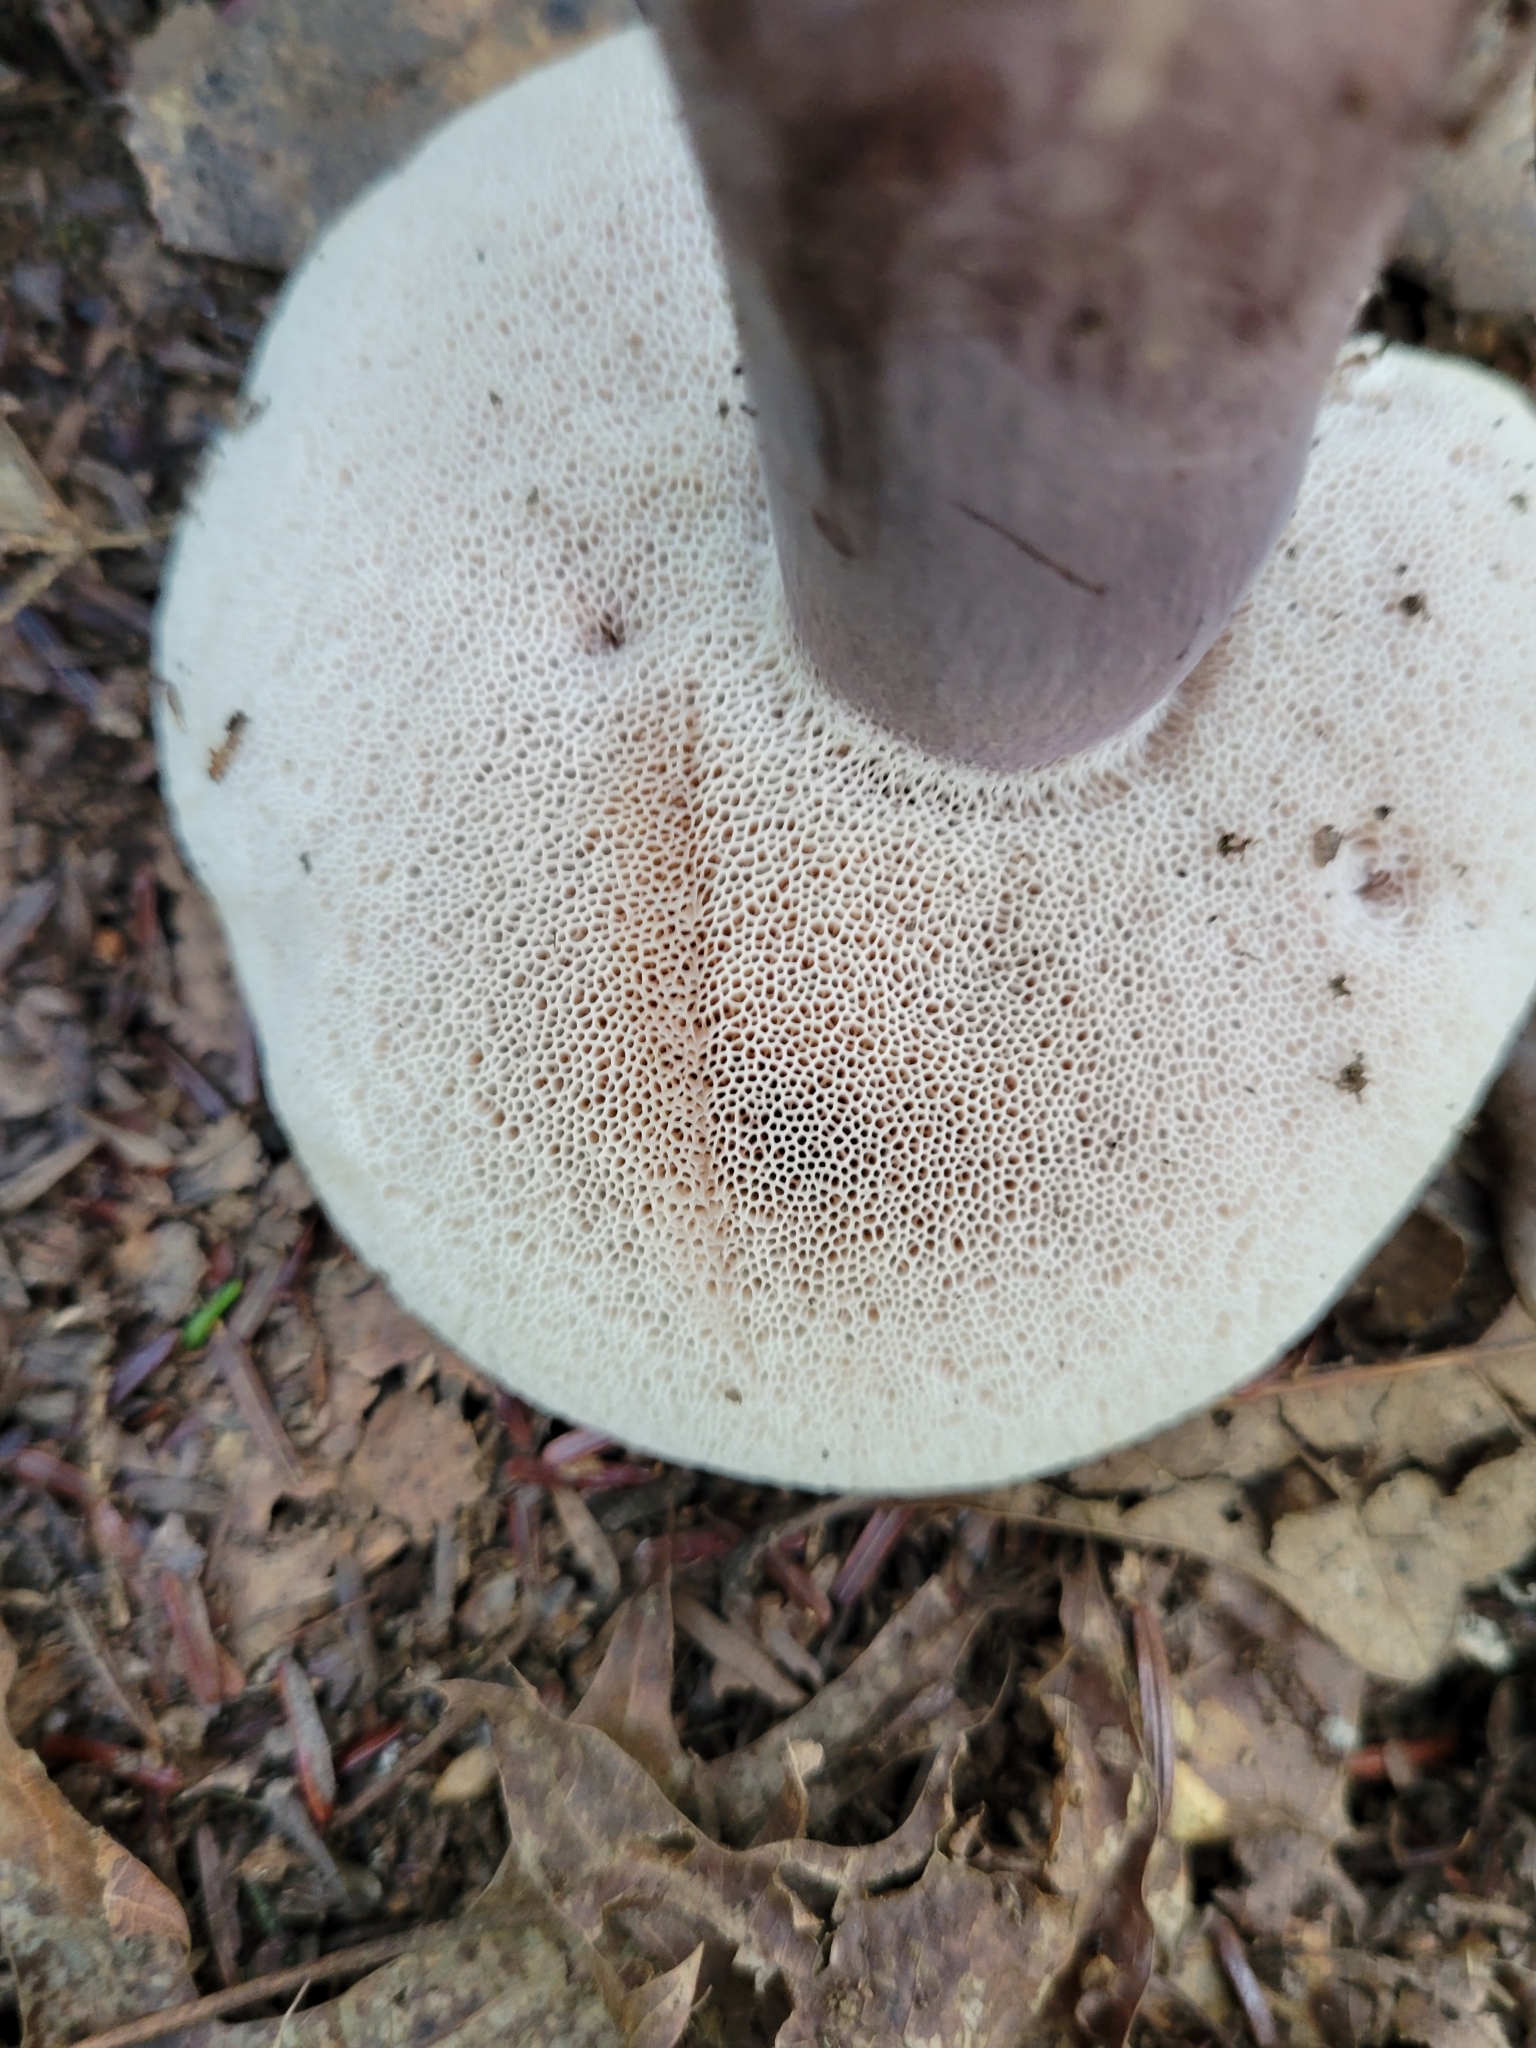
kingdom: Fungi
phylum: Basidiomycota
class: Agaricomycetes
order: Boletales
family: Boletaceae
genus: Tylopilus
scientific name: Tylopilus plumbeoviolaceus
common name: Violet gray bolete
